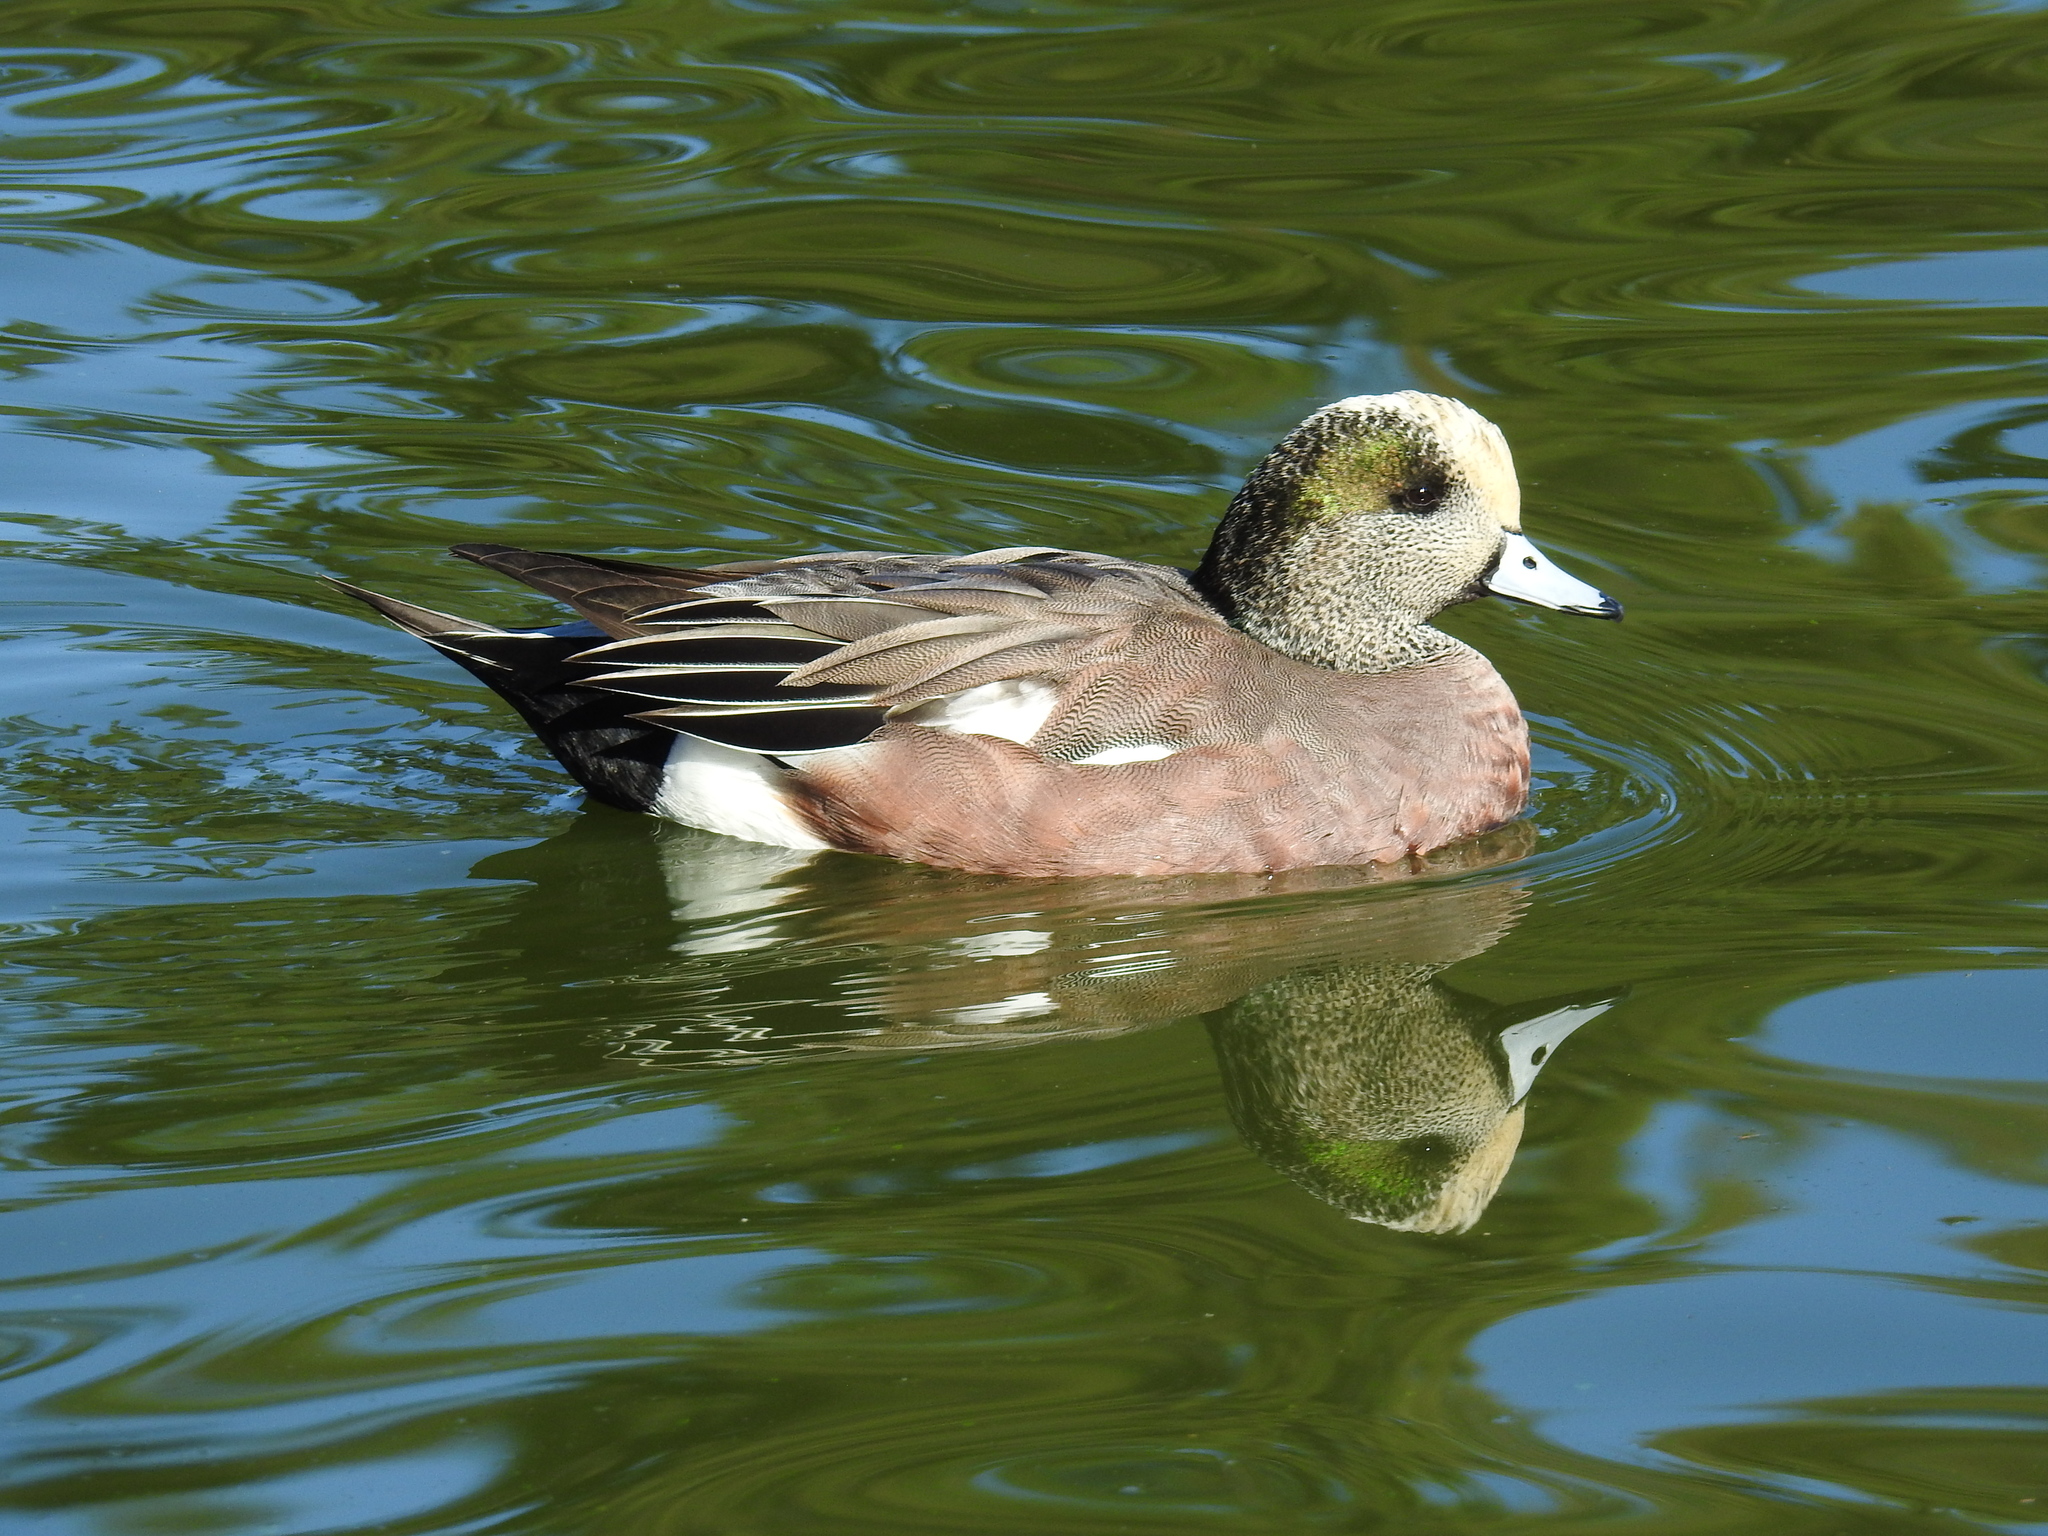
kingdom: Animalia
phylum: Chordata
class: Aves
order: Anseriformes
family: Anatidae
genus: Mareca
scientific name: Mareca americana
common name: American wigeon
